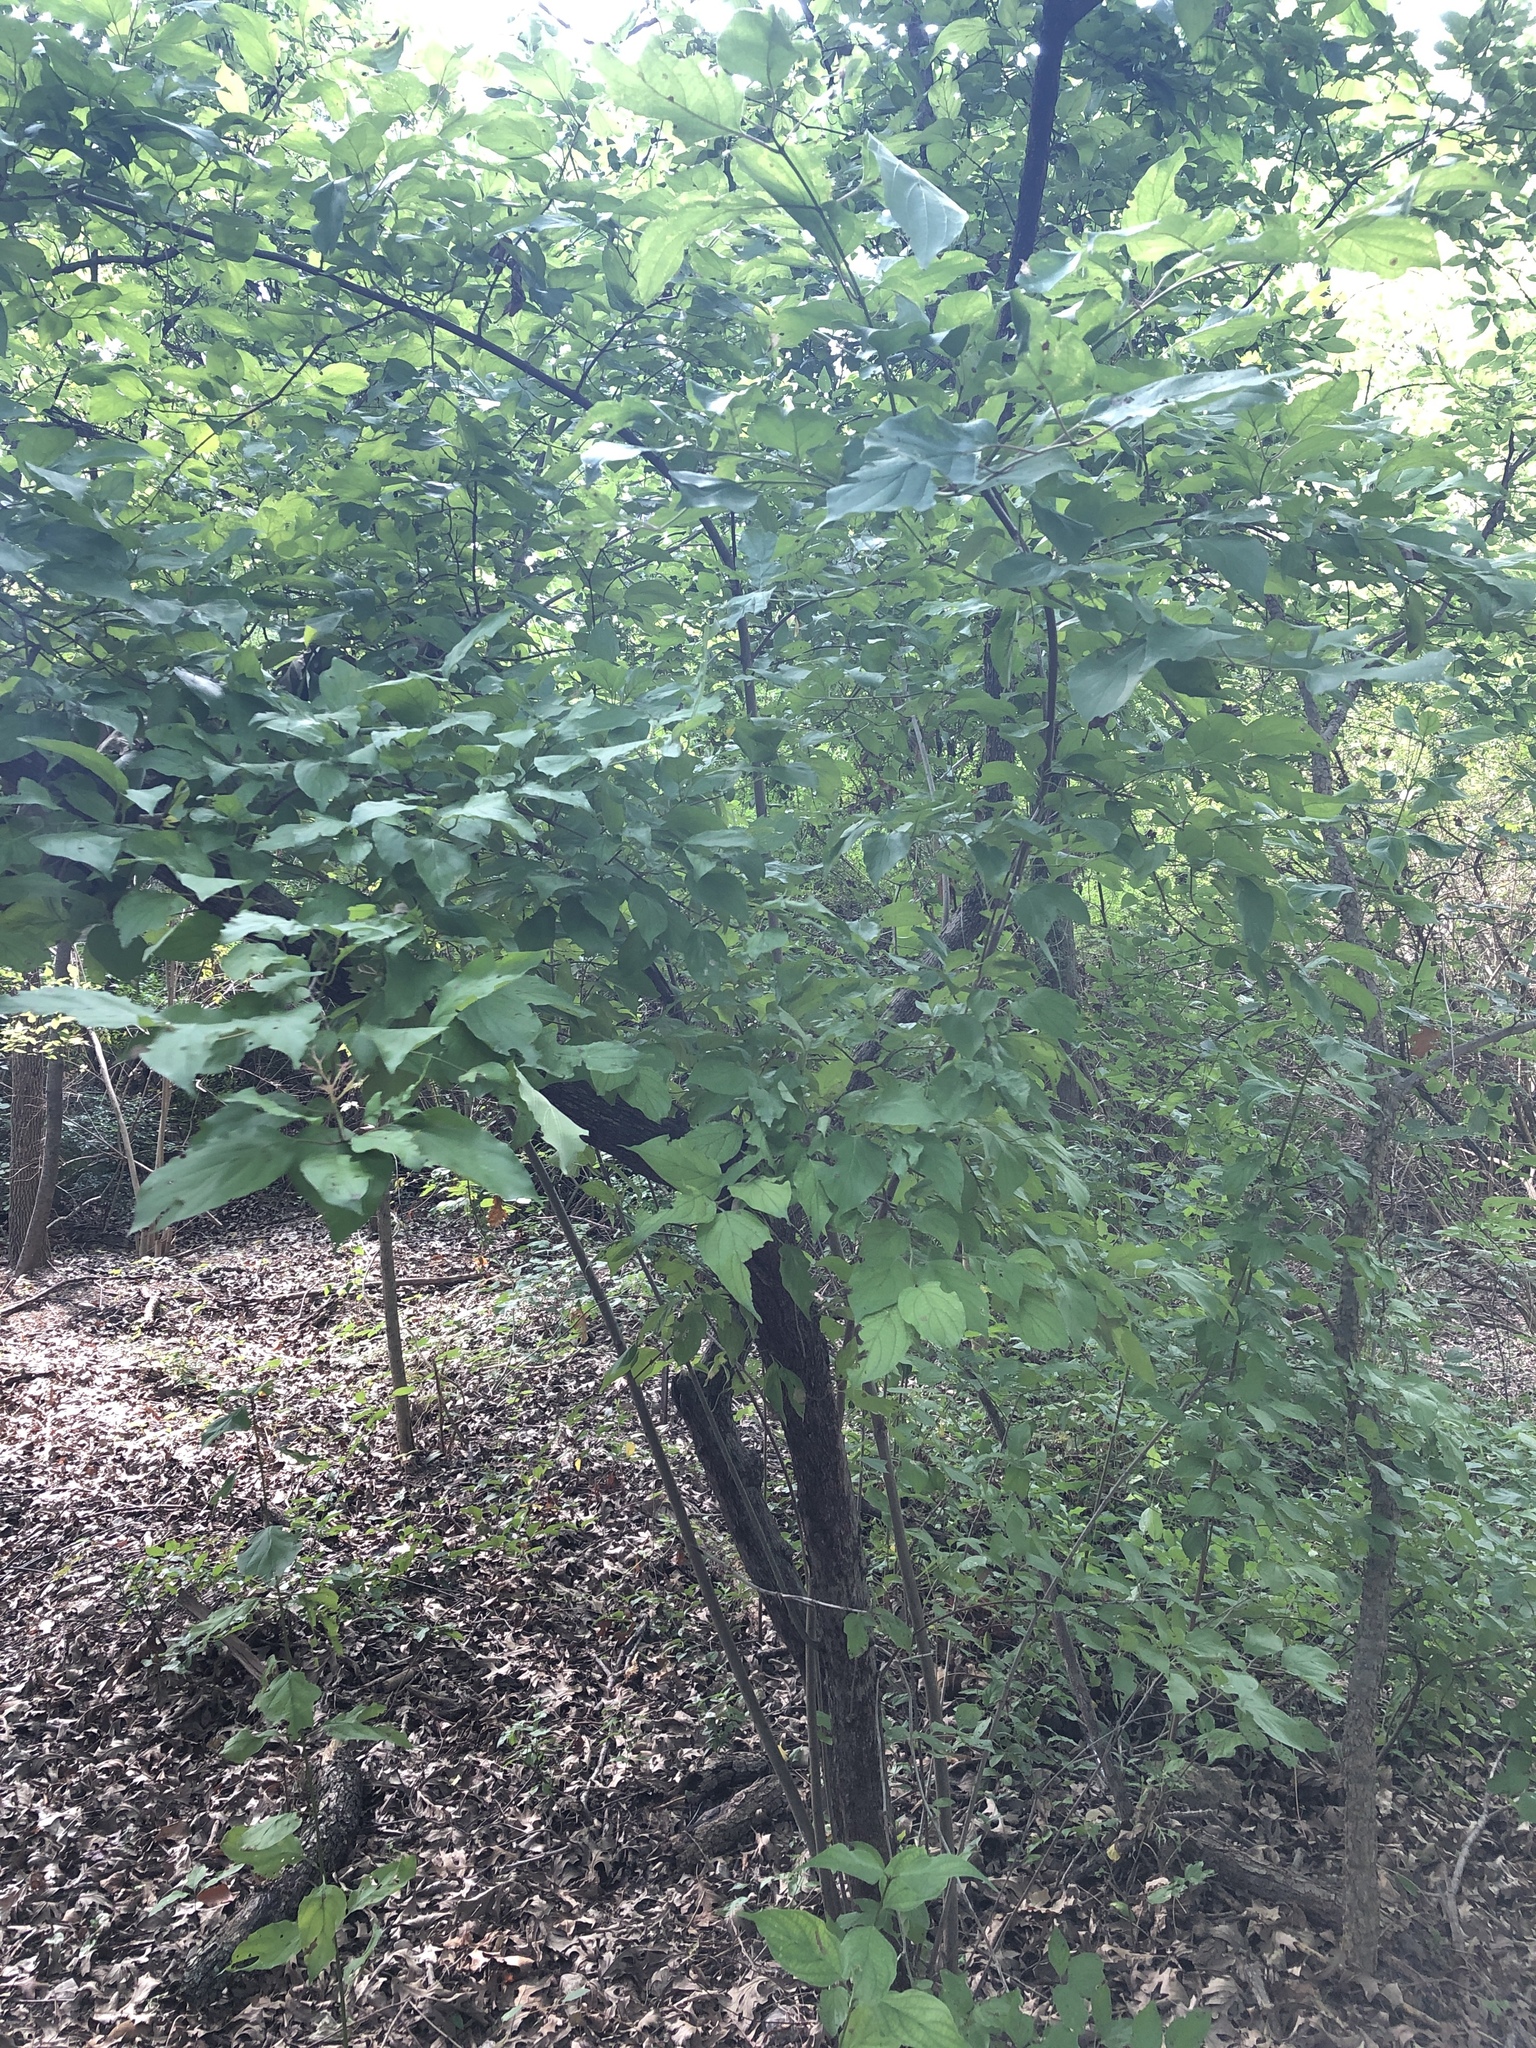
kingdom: Plantae
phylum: Tracheophyta
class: Magnoliopsida
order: Cornales
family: Cornaceae
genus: Cornus
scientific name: Cornus drummondii
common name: Rough-leaf dogwood
